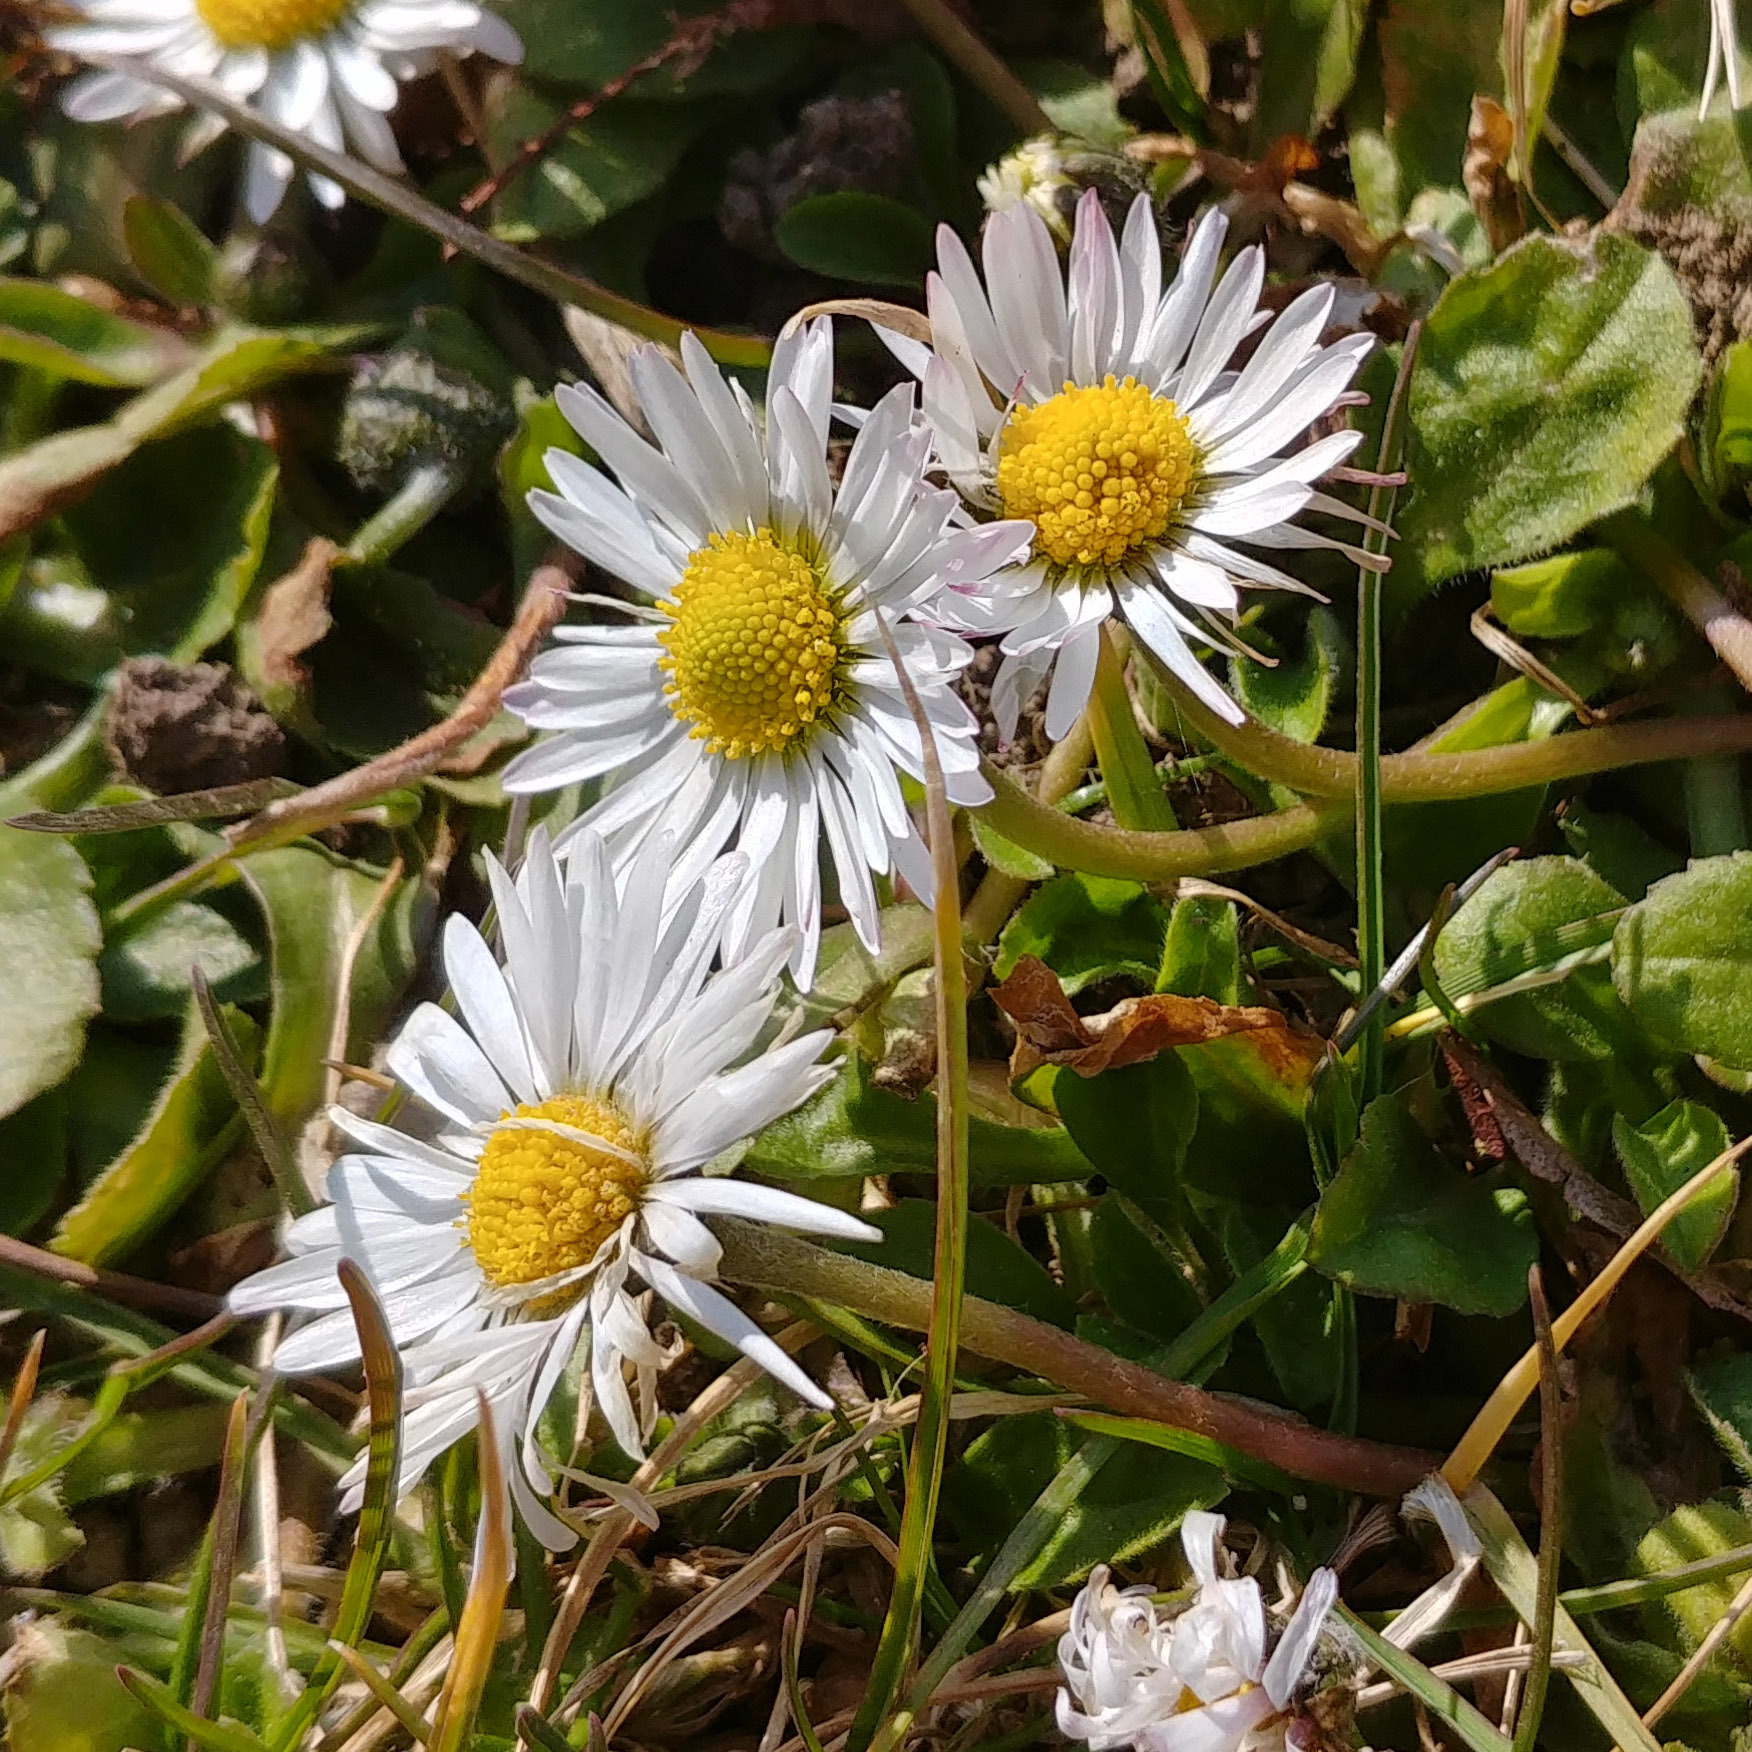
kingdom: Plantae
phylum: Tracheophyta
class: Magnoliopsida
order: Asterales
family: Asteraceae
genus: Bellis
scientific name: Bellis perennis
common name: Lawndaisy
